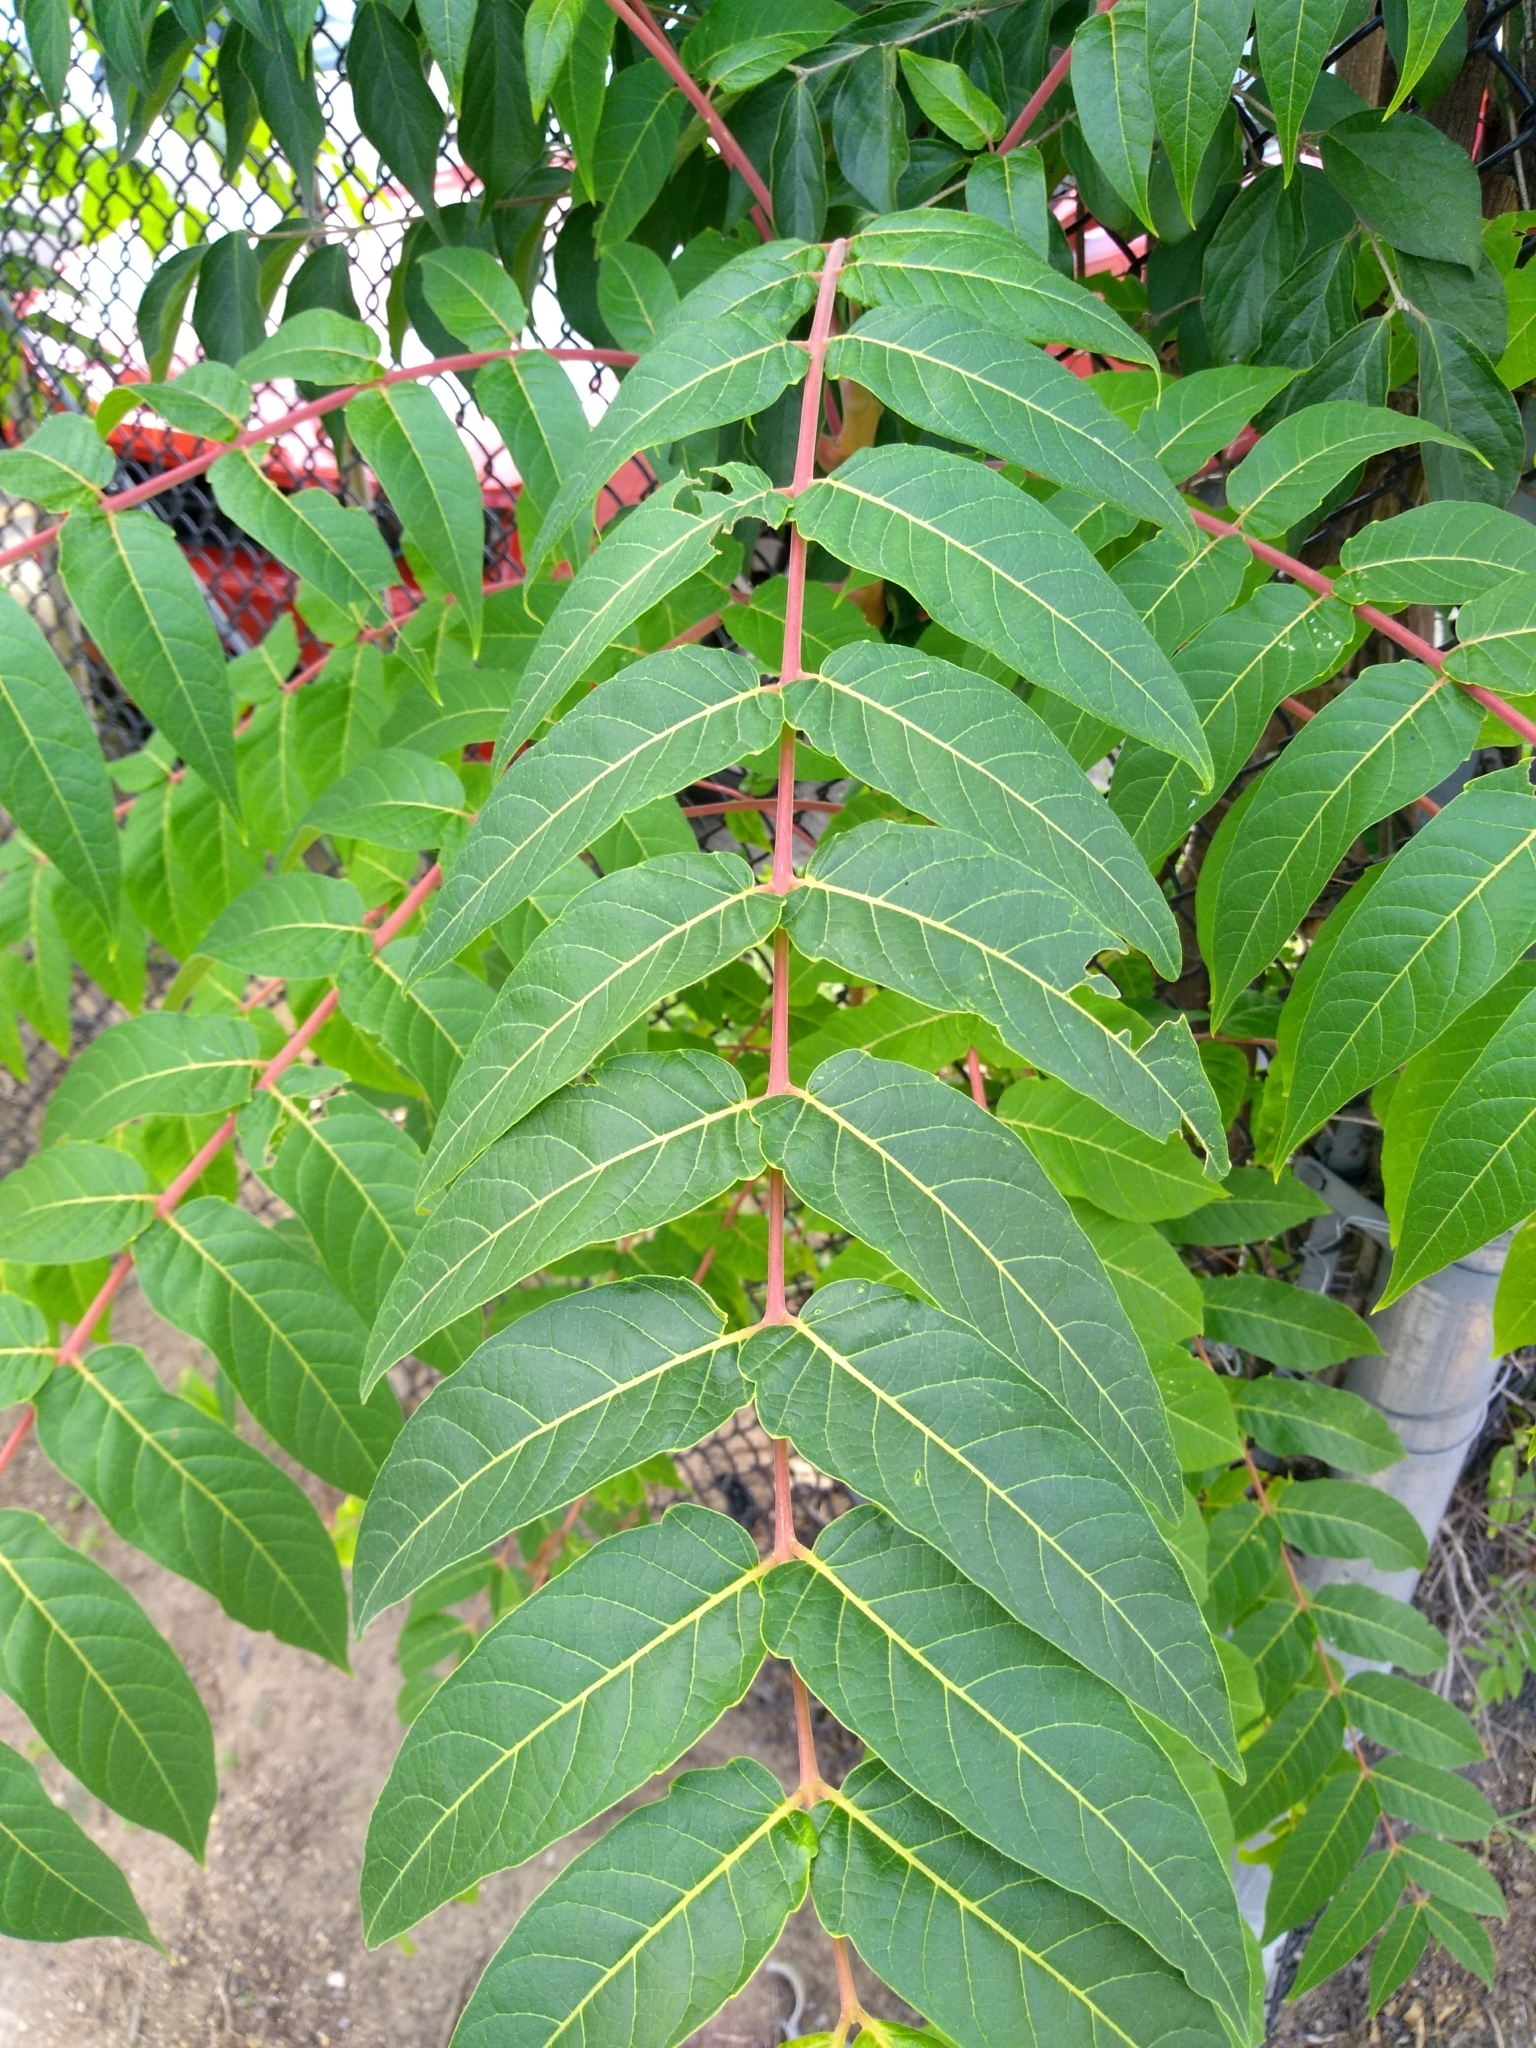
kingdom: Plantae
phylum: Tracheophyta
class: Magnoliopsida
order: Sapindales
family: Simaroubaceae
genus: Ailanthus
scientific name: Ailanthus altissima
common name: Tree-of-heaven
